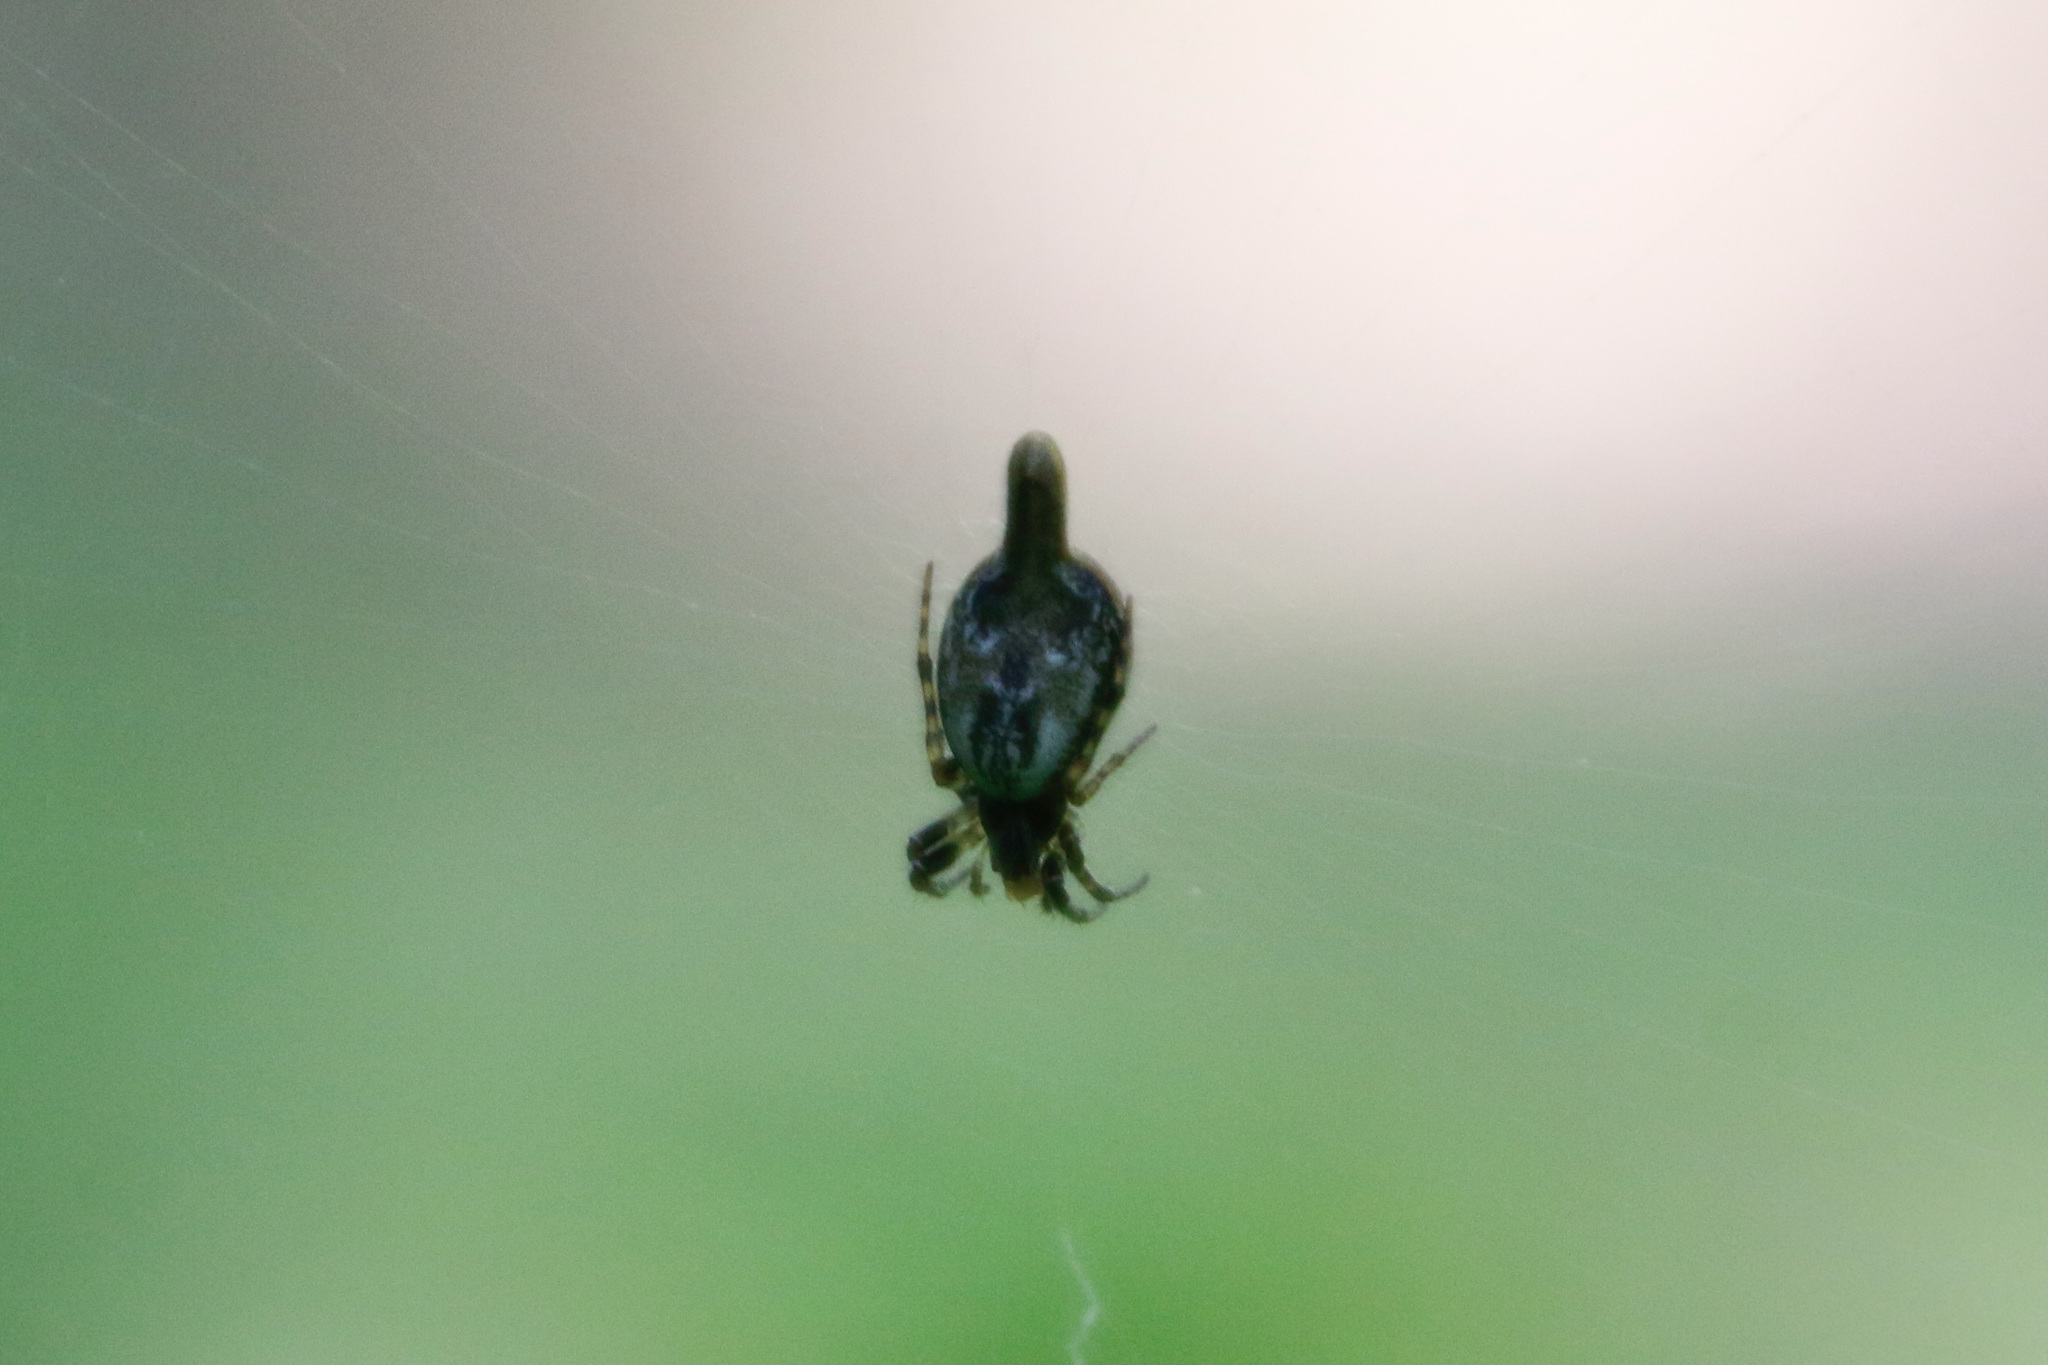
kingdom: Animalia
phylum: Arthropoda
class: Arachnida
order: Araneae
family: Araneidae
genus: Cyclosa
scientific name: Cyclosa conica
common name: Conical trashline orbweaver
